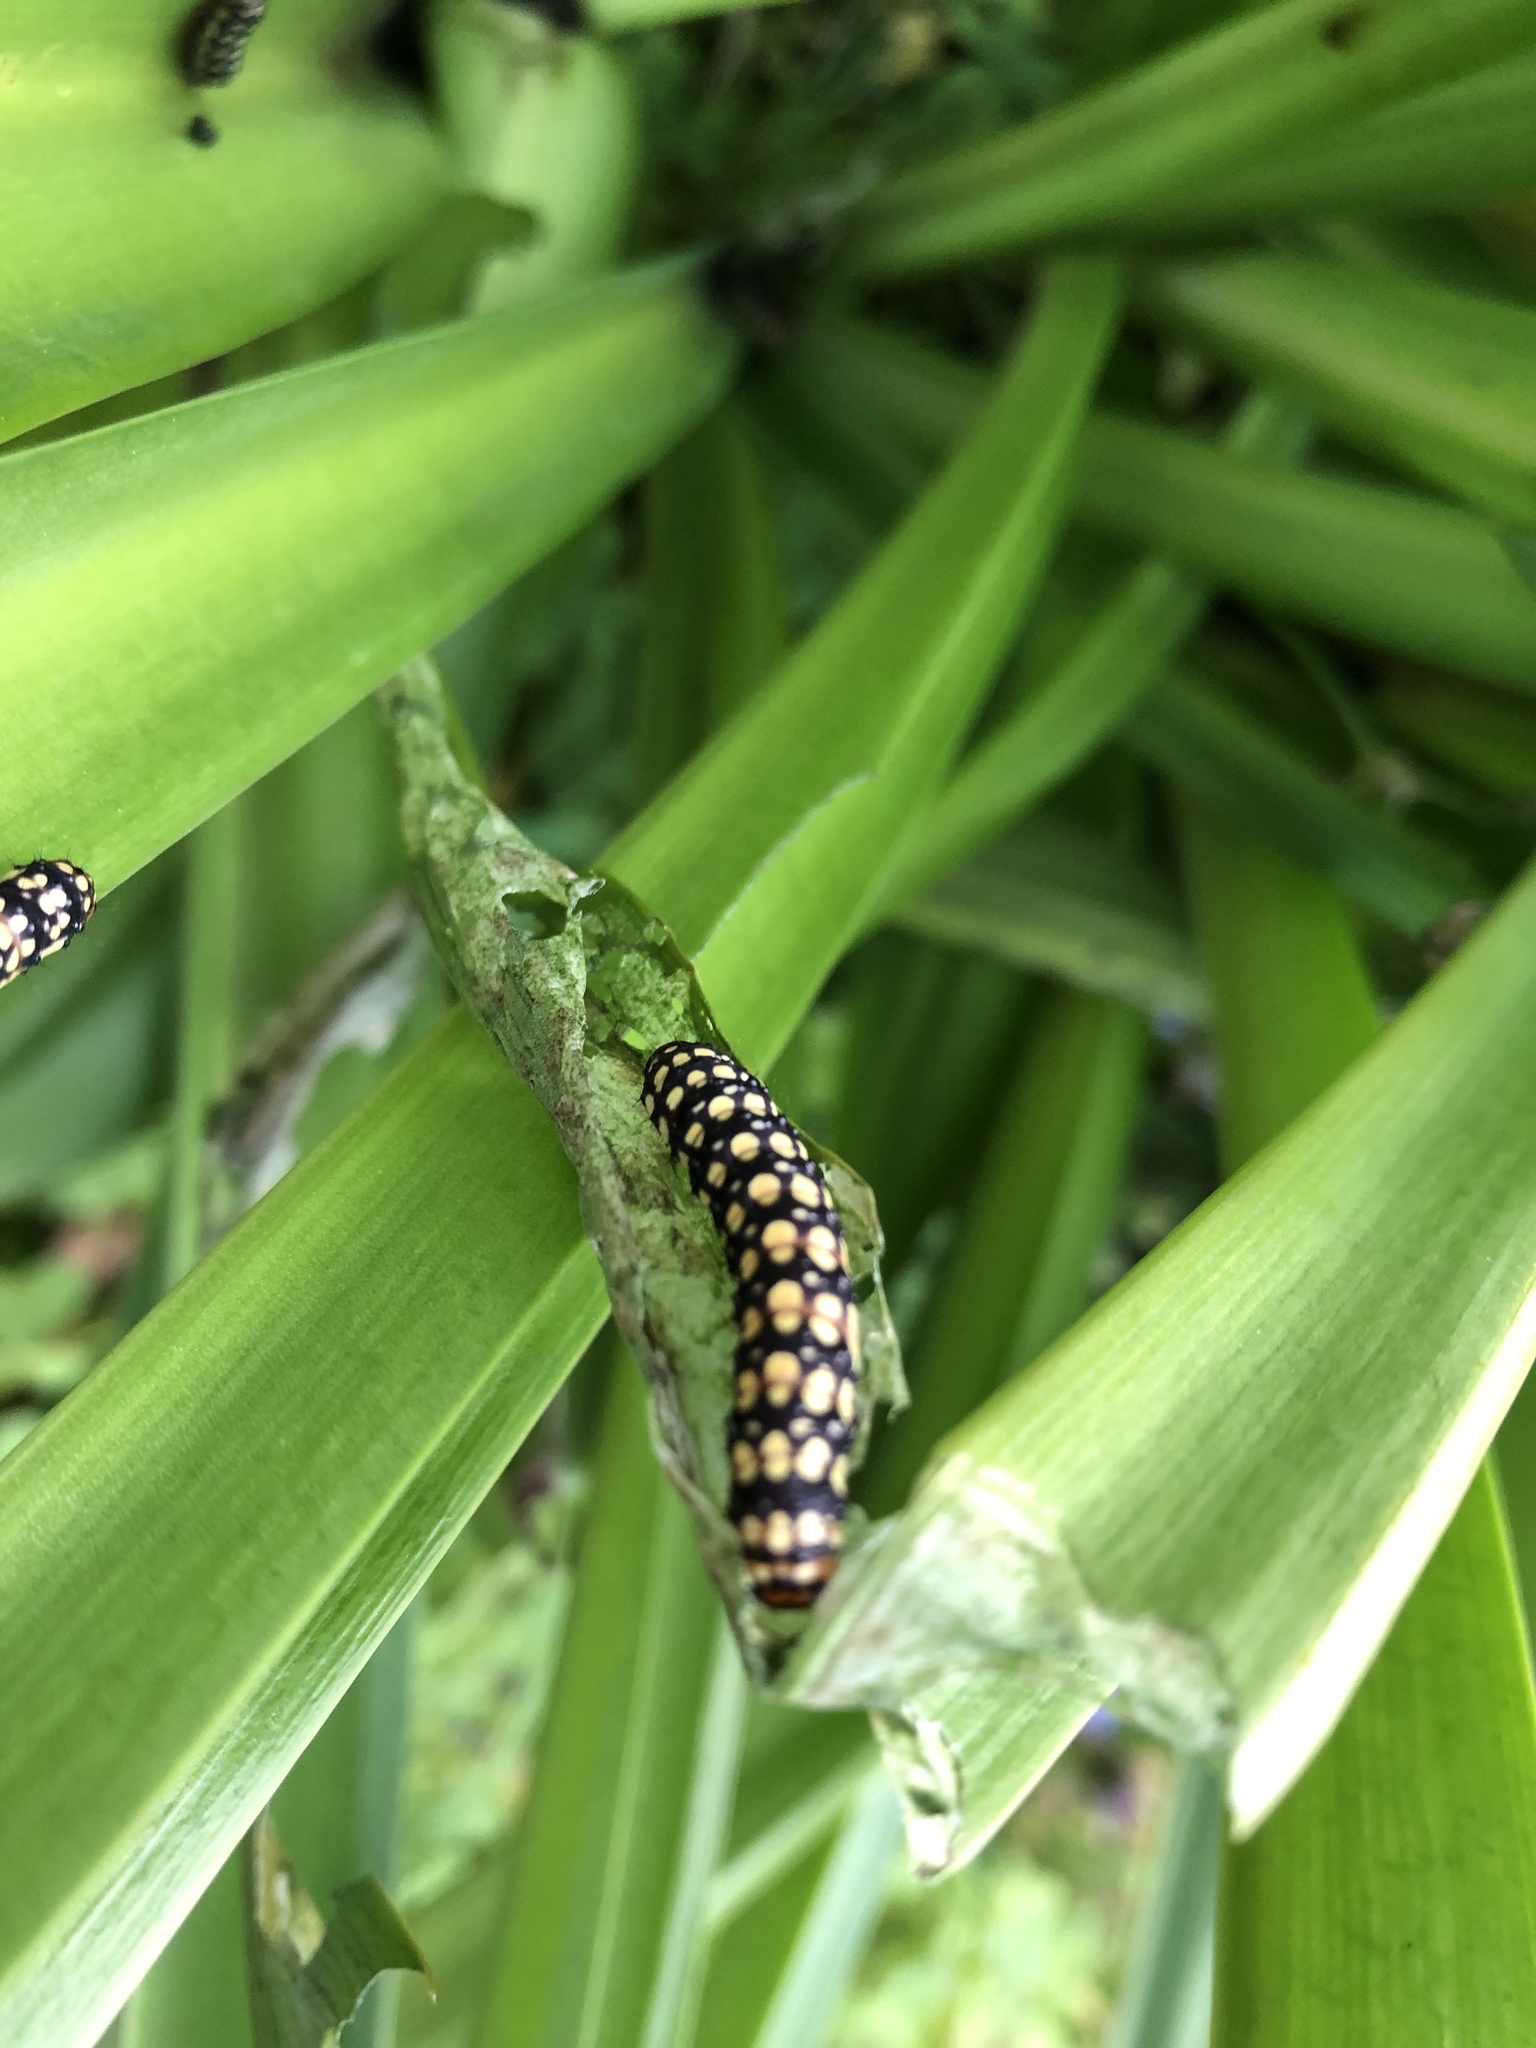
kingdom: Animalia
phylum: Arthropoda
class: Insecta
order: Lepidoptera
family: Noctuidae
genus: Brithys
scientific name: Brithys crini
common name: Kew arches
